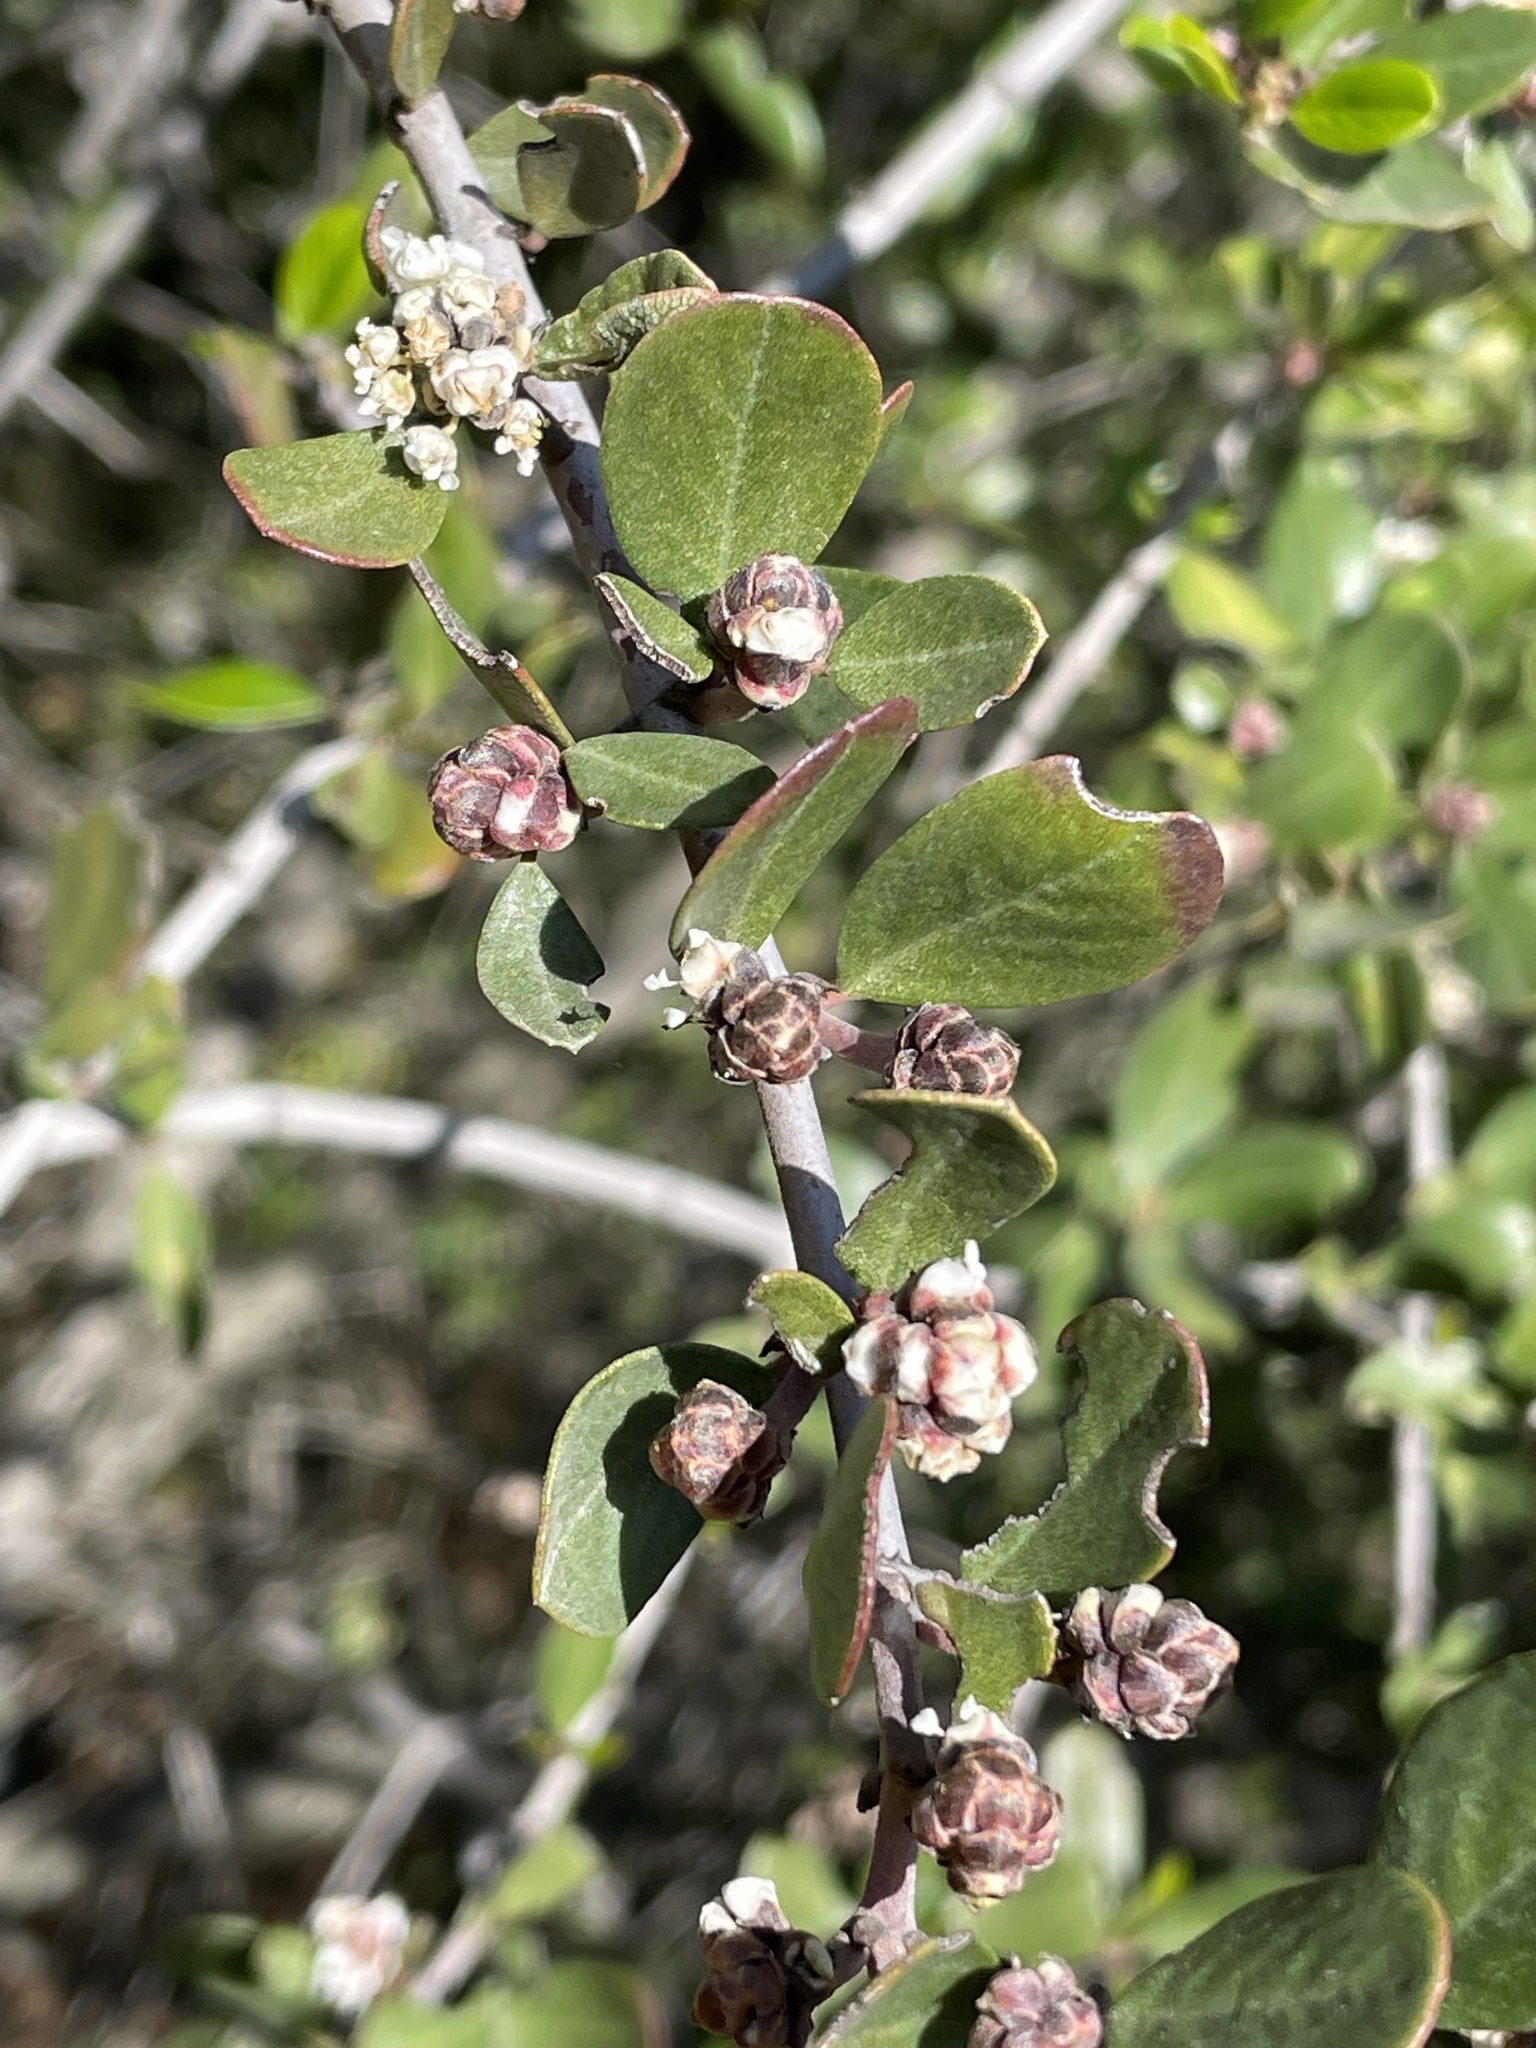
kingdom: Plantae
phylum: Tracheophyta
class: Magnoliopsida
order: Rosales
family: Rhamnaceae
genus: Ceanothus
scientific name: Ceanothus cuneatus
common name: Cuneate ceanothus
